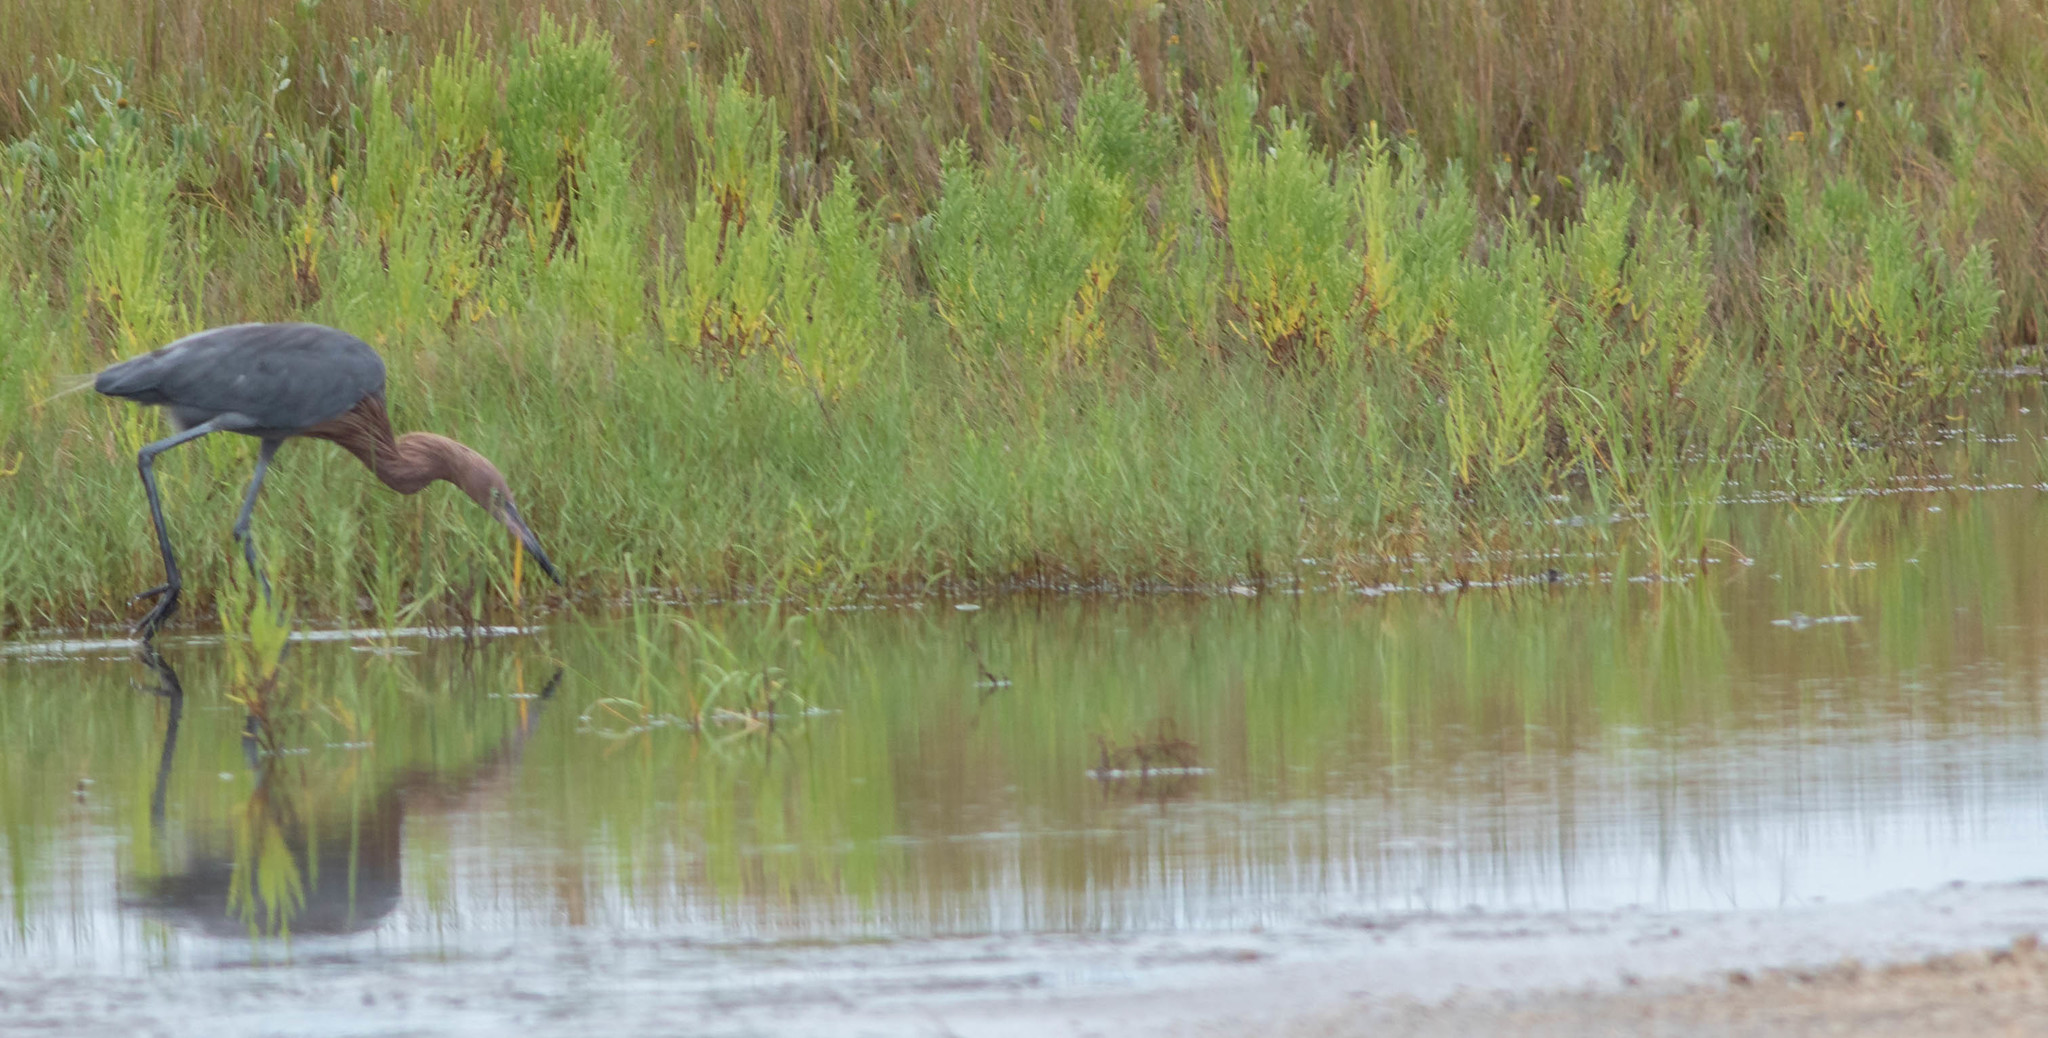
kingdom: Animalia
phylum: Chordata
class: Aves
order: Pelecaniformes
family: Ardeidae
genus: Egretta
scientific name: Egretta rufescens
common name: Reddish egret
